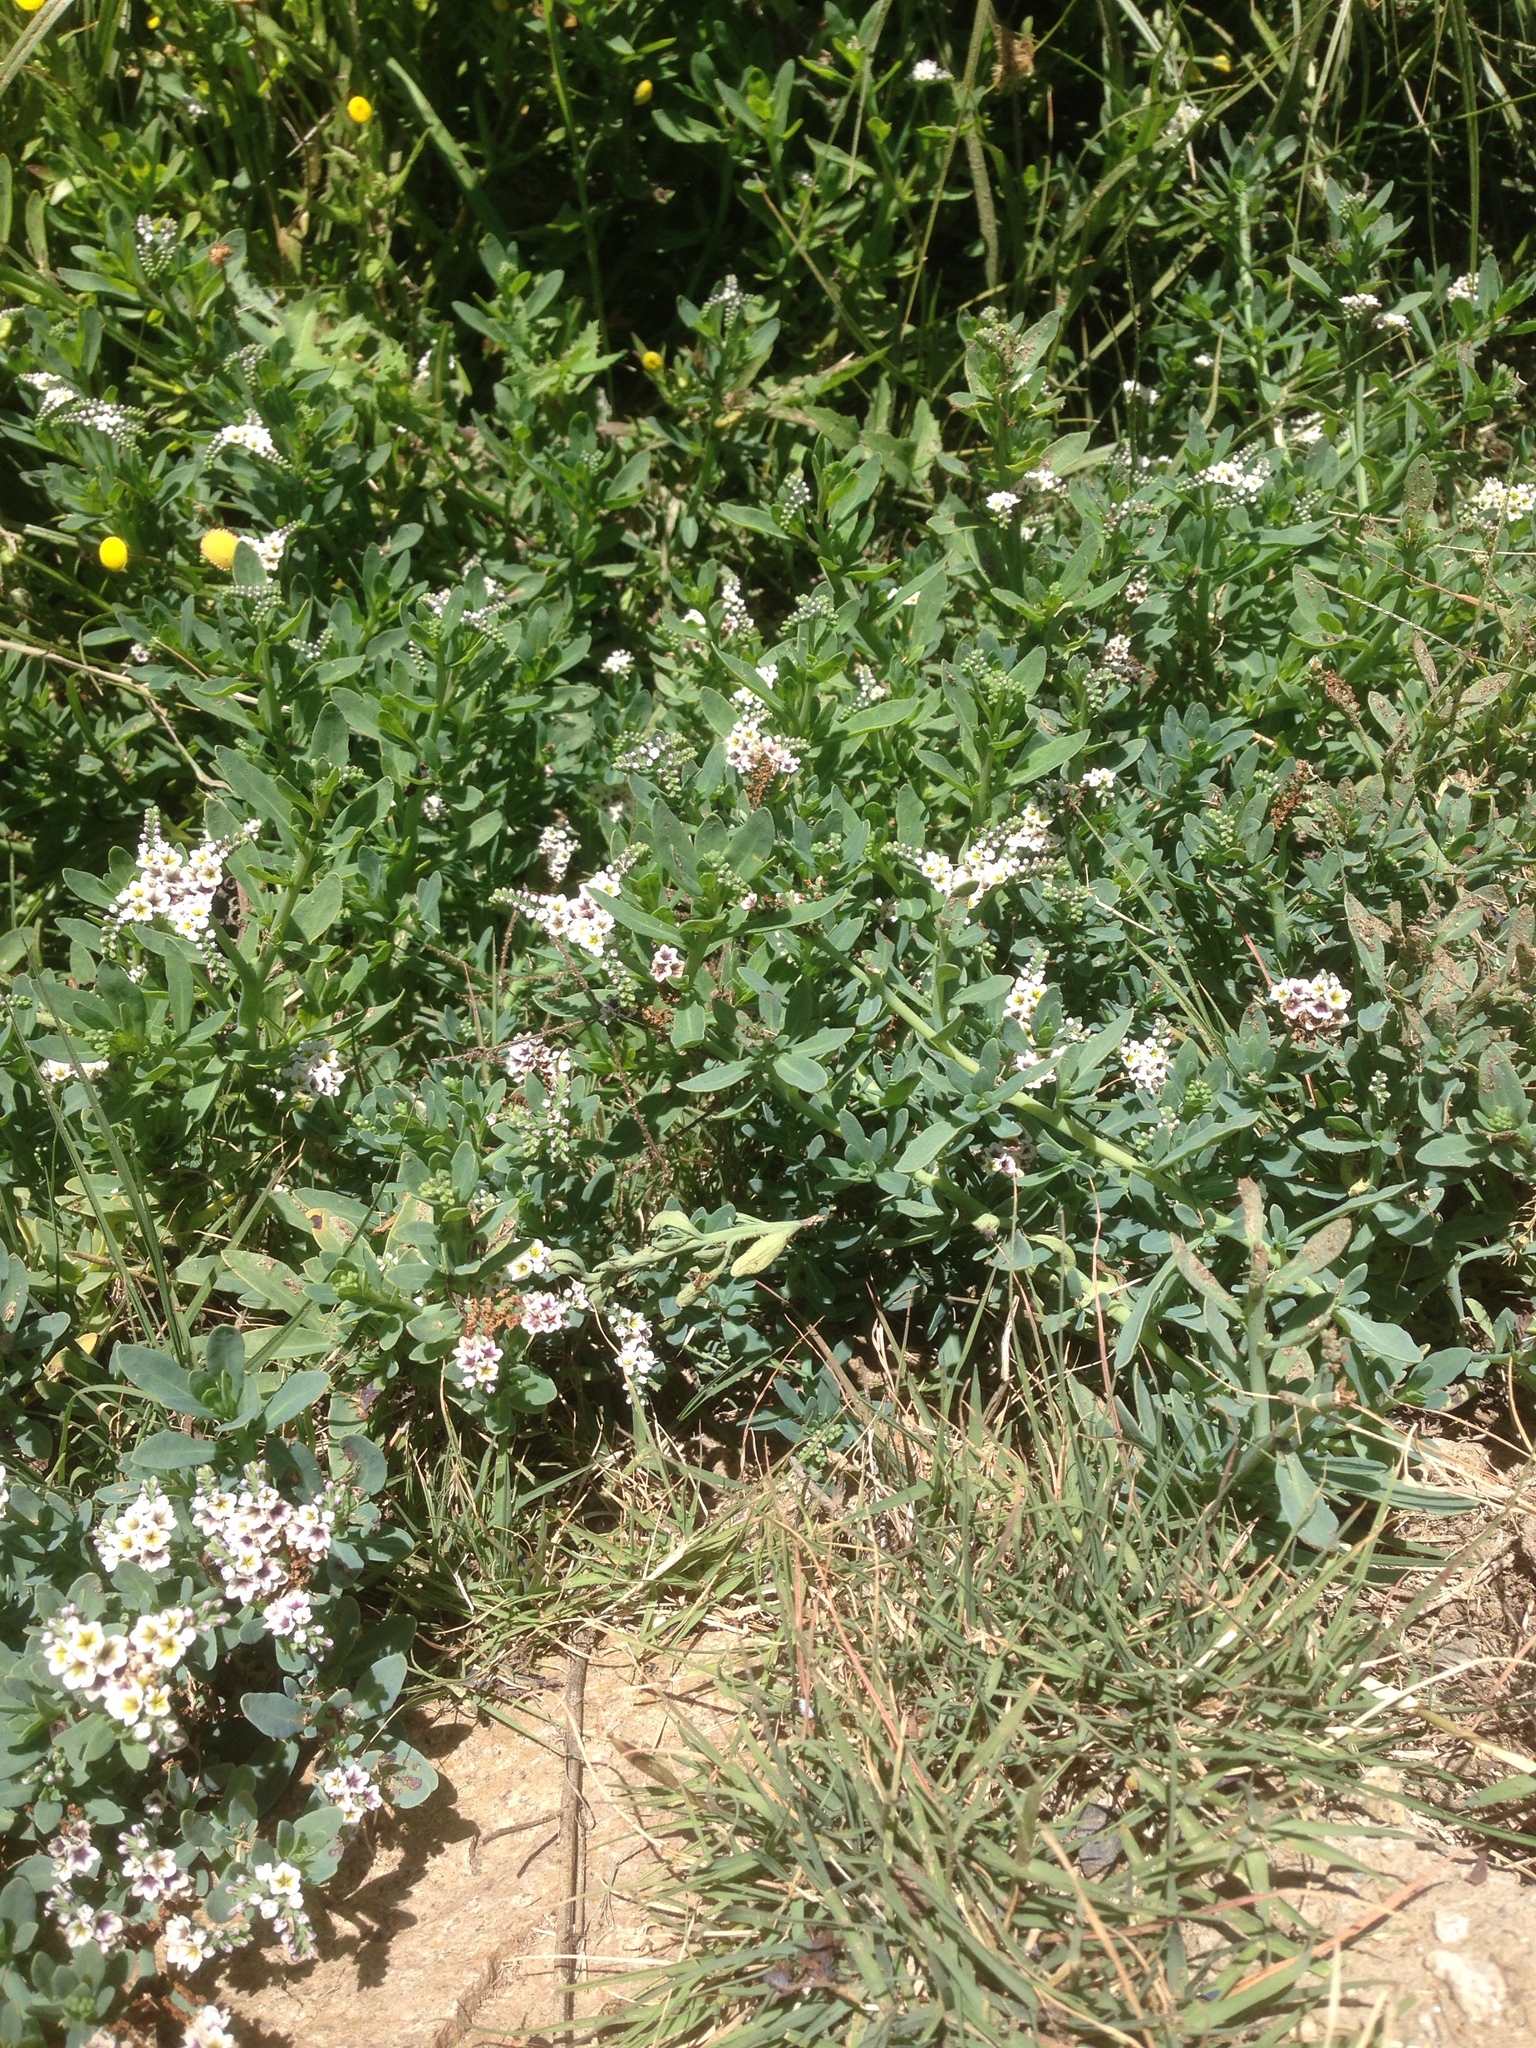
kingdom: Plantae
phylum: Tracheophyta
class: Magnoliopsida
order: Boraginales
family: Heliotropiaceae
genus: Heliotropium
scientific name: Heliotropium curassavicum
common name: Seaside heliotrope
